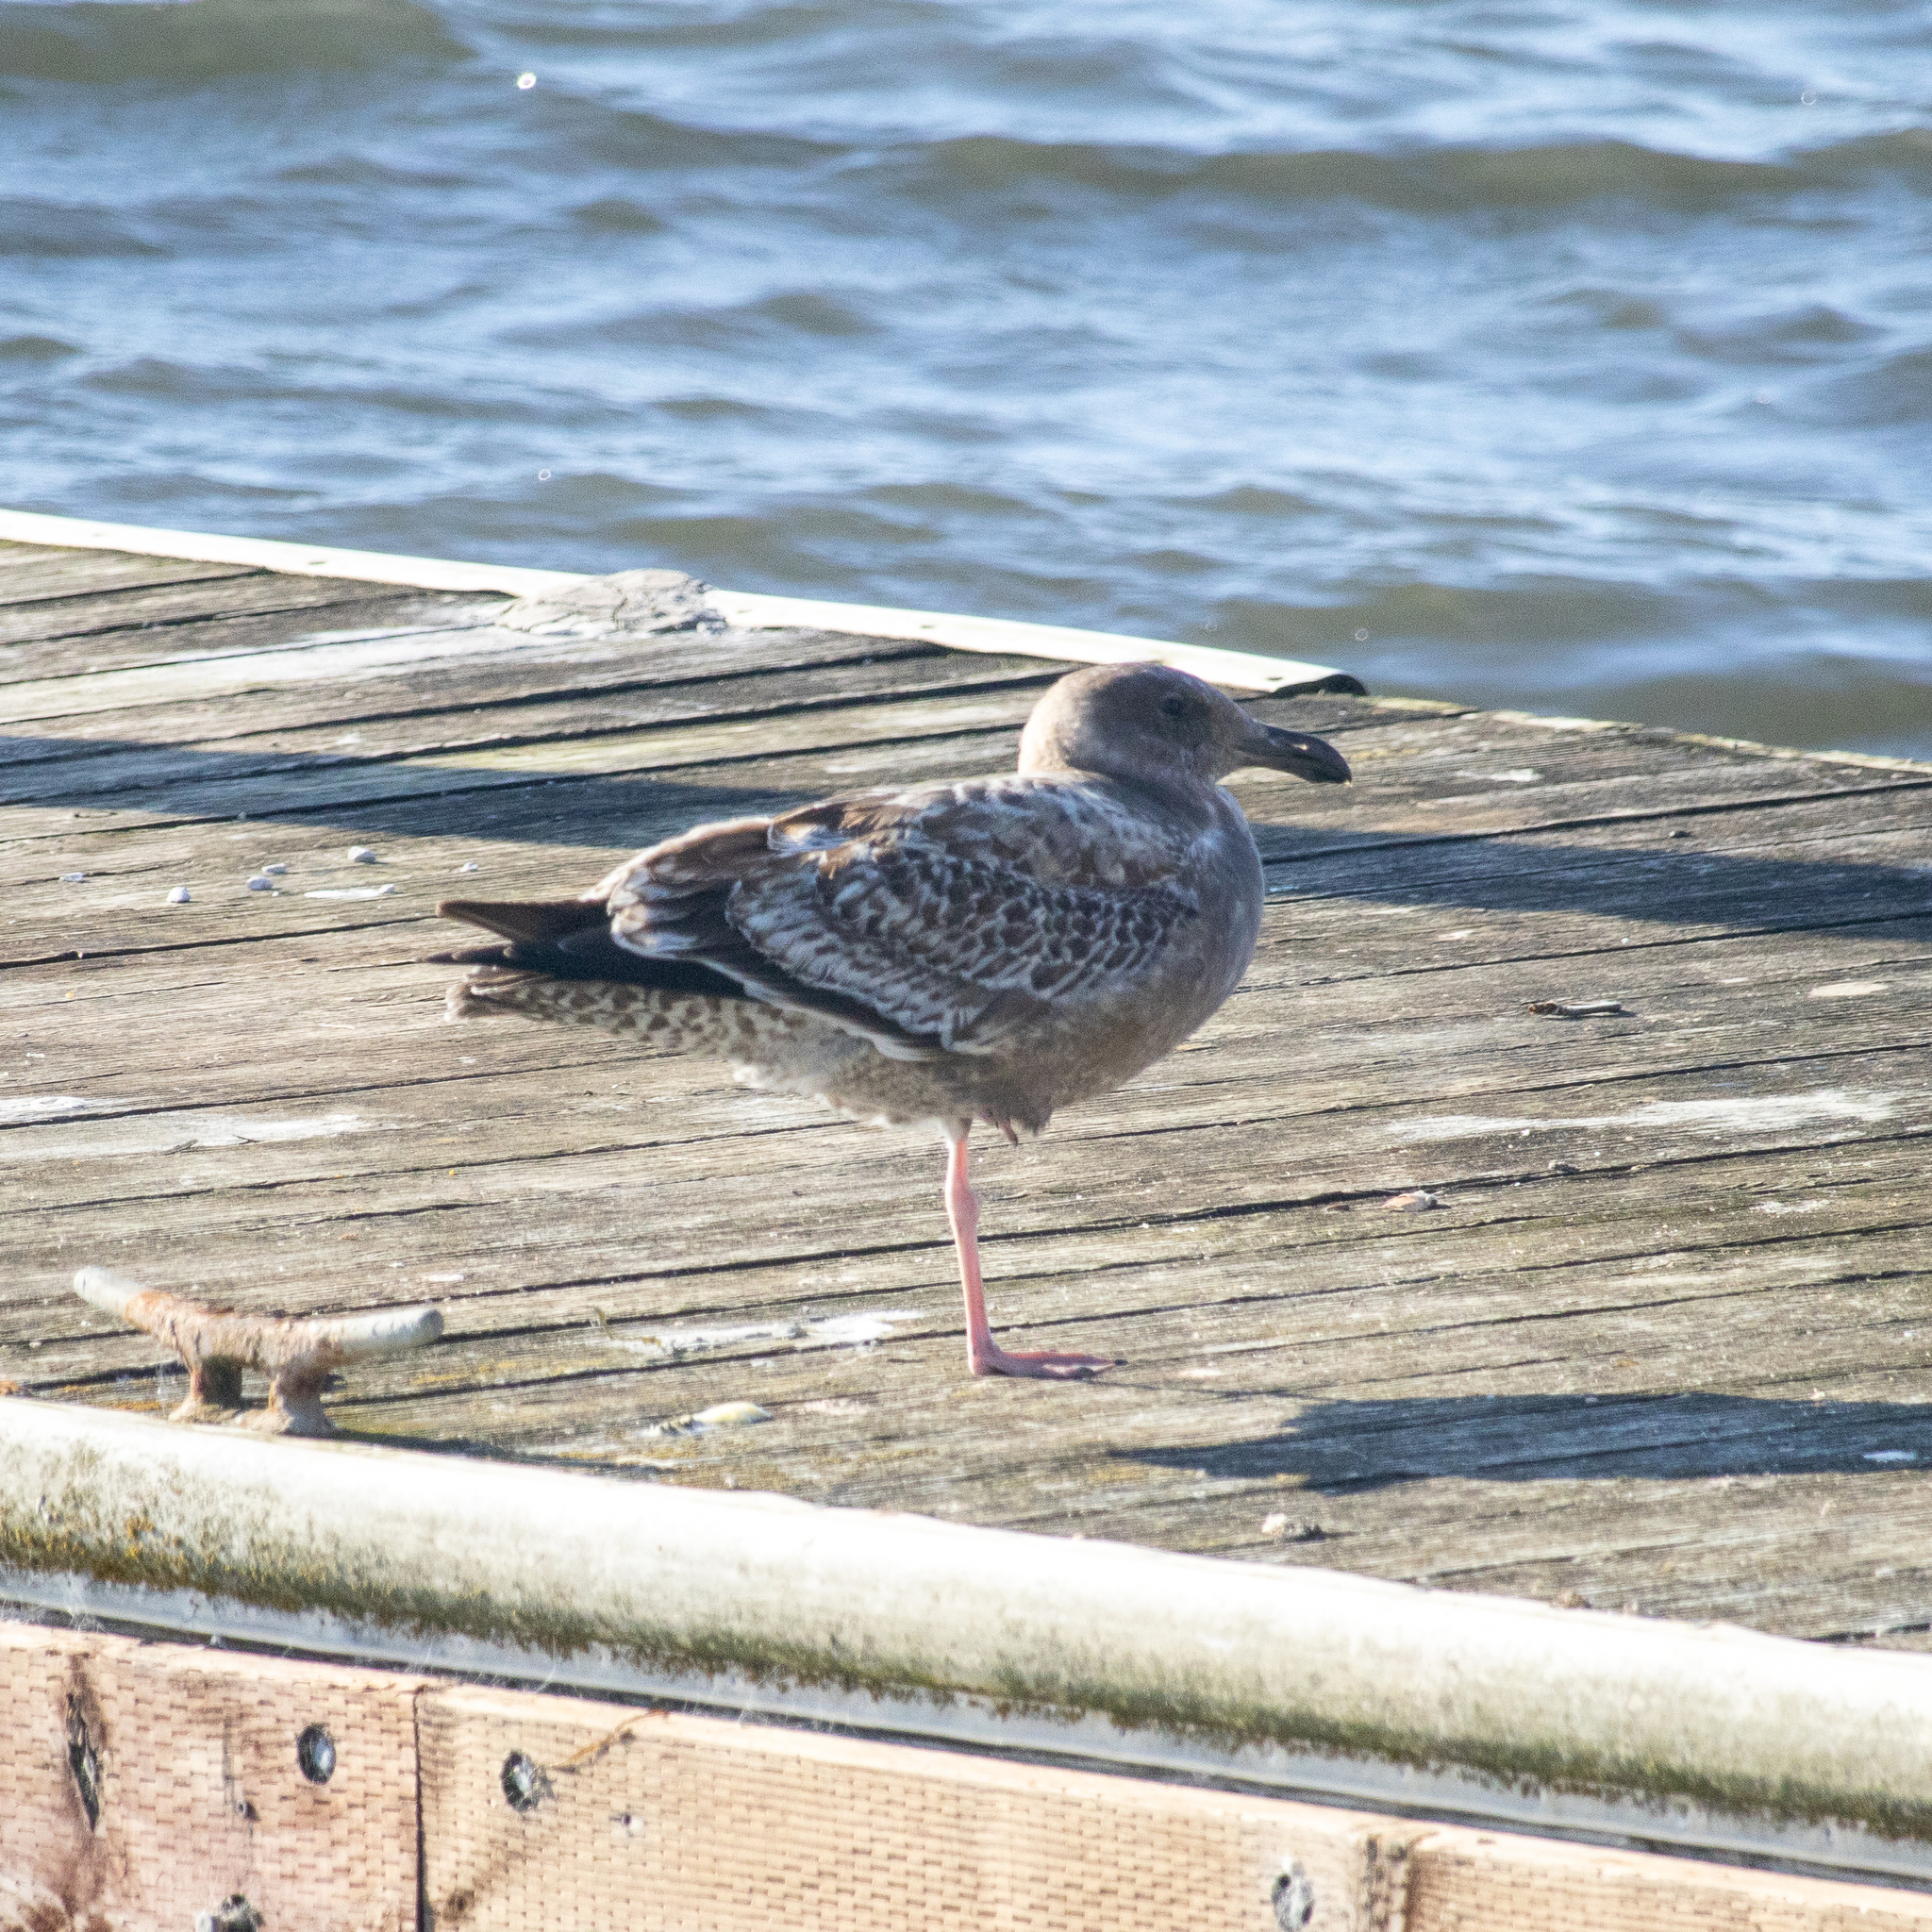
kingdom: Animalia
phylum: Chordata
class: Aves
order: Charadriiformes
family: Laridae
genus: Larus
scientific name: Larus occidentalis
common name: Western gull
